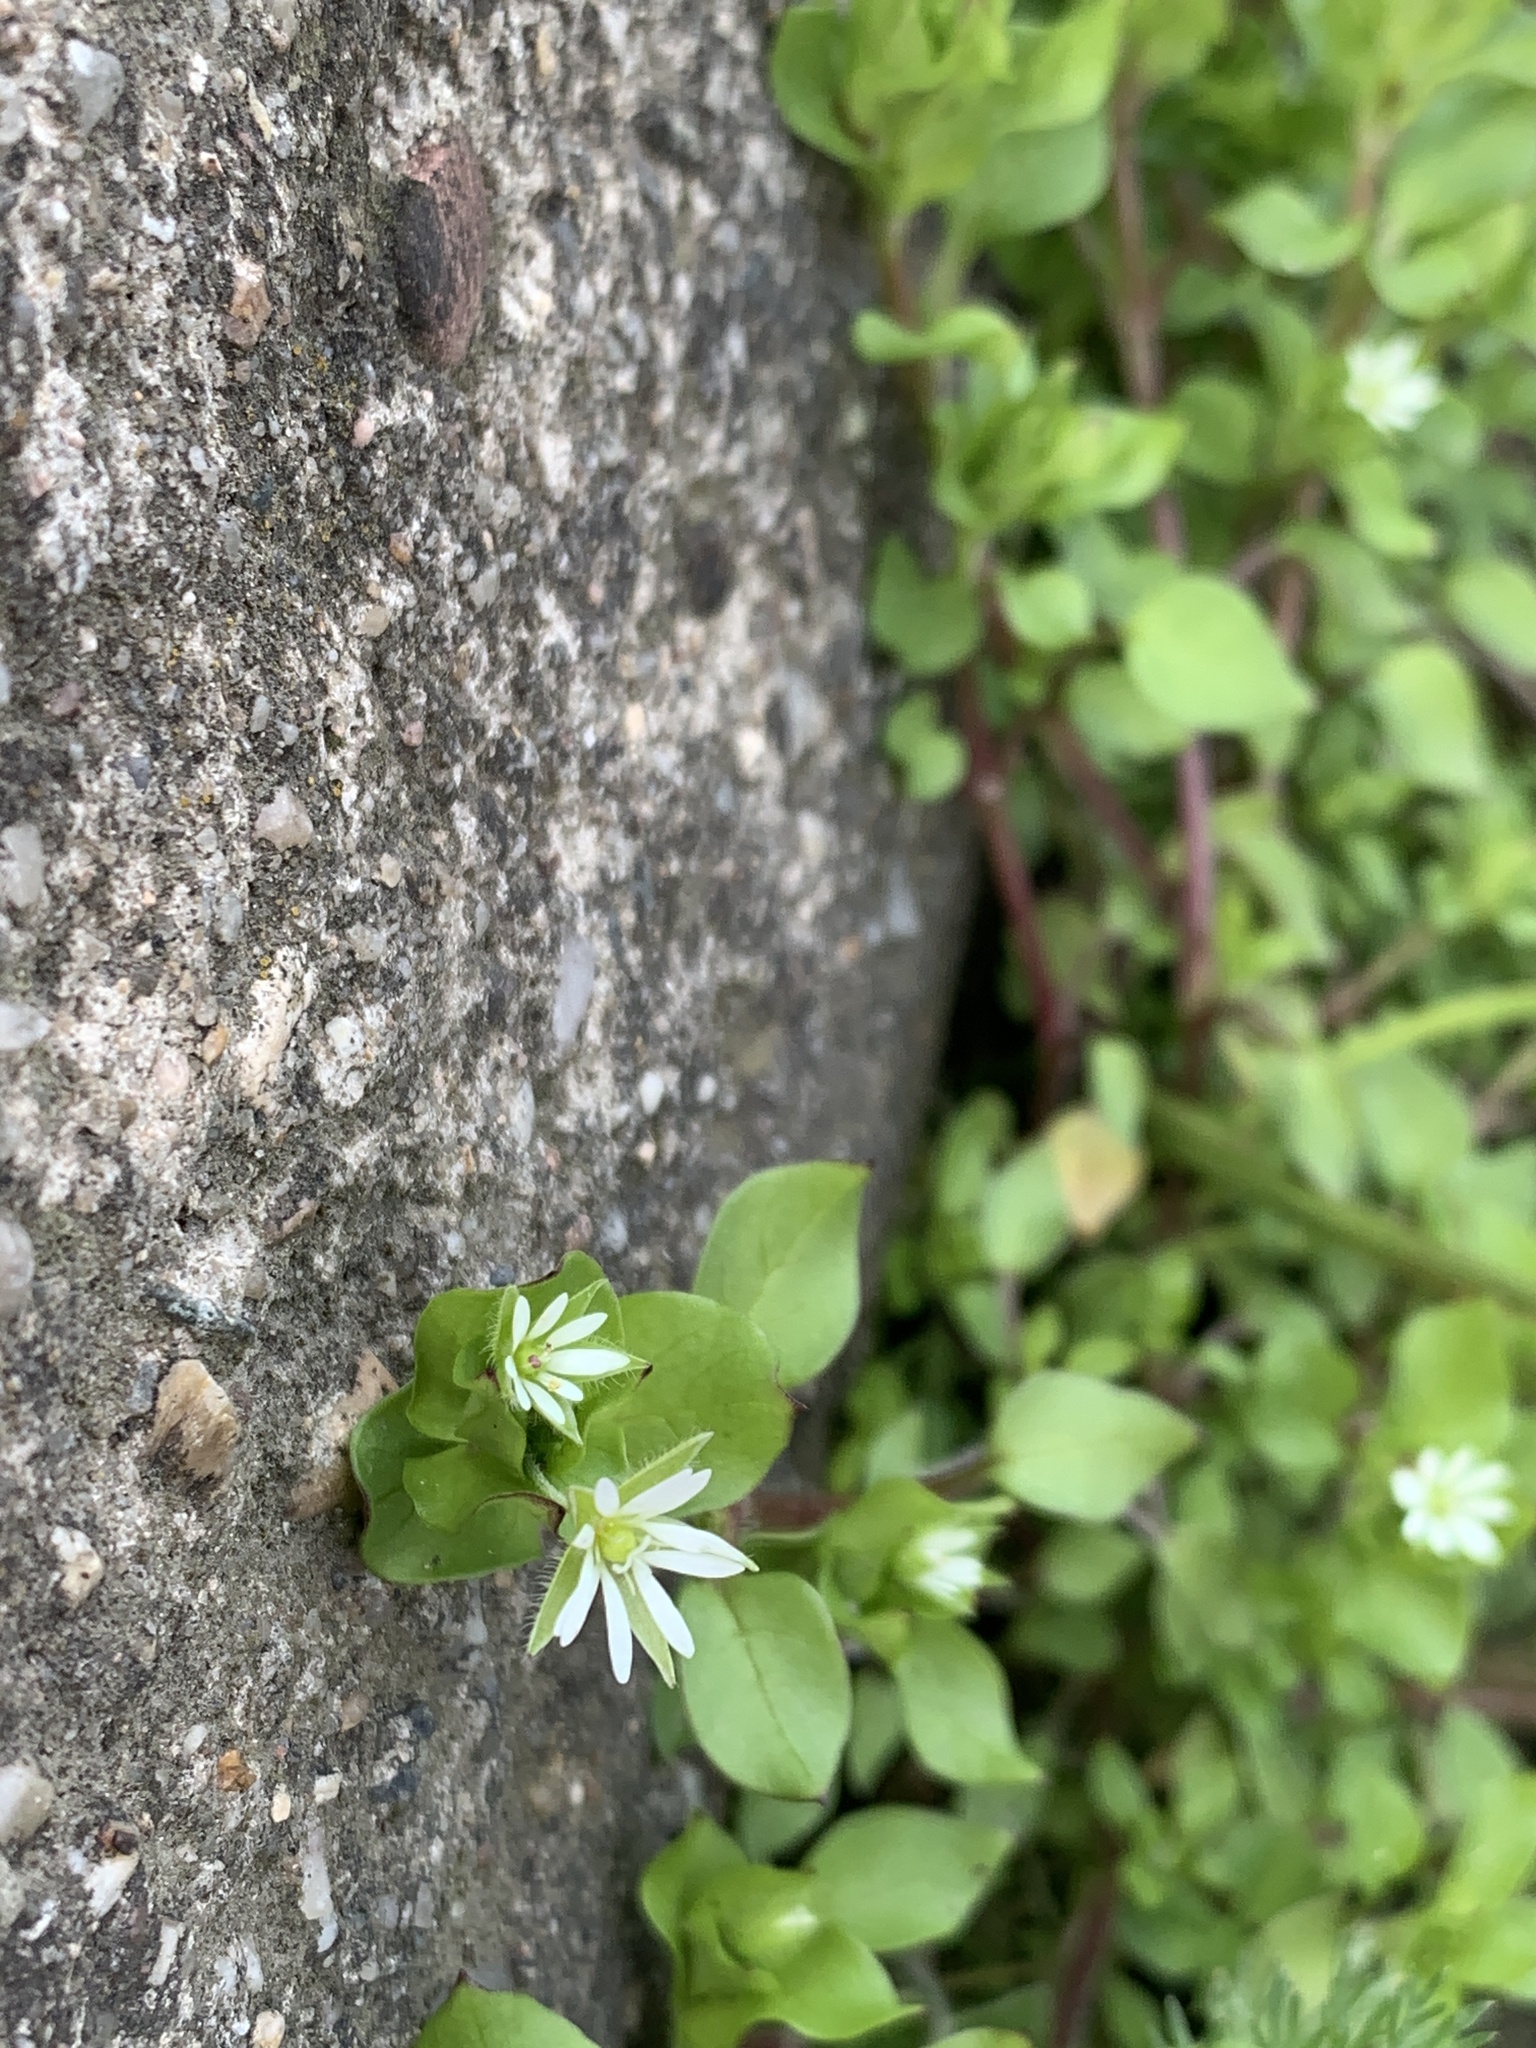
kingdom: Plantae
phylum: Tracheophyta
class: Magnoliopsida
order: Caryophyllales
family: Caryophyllaceae
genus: Stellaria
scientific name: Stellaria media
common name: Common chickweed
